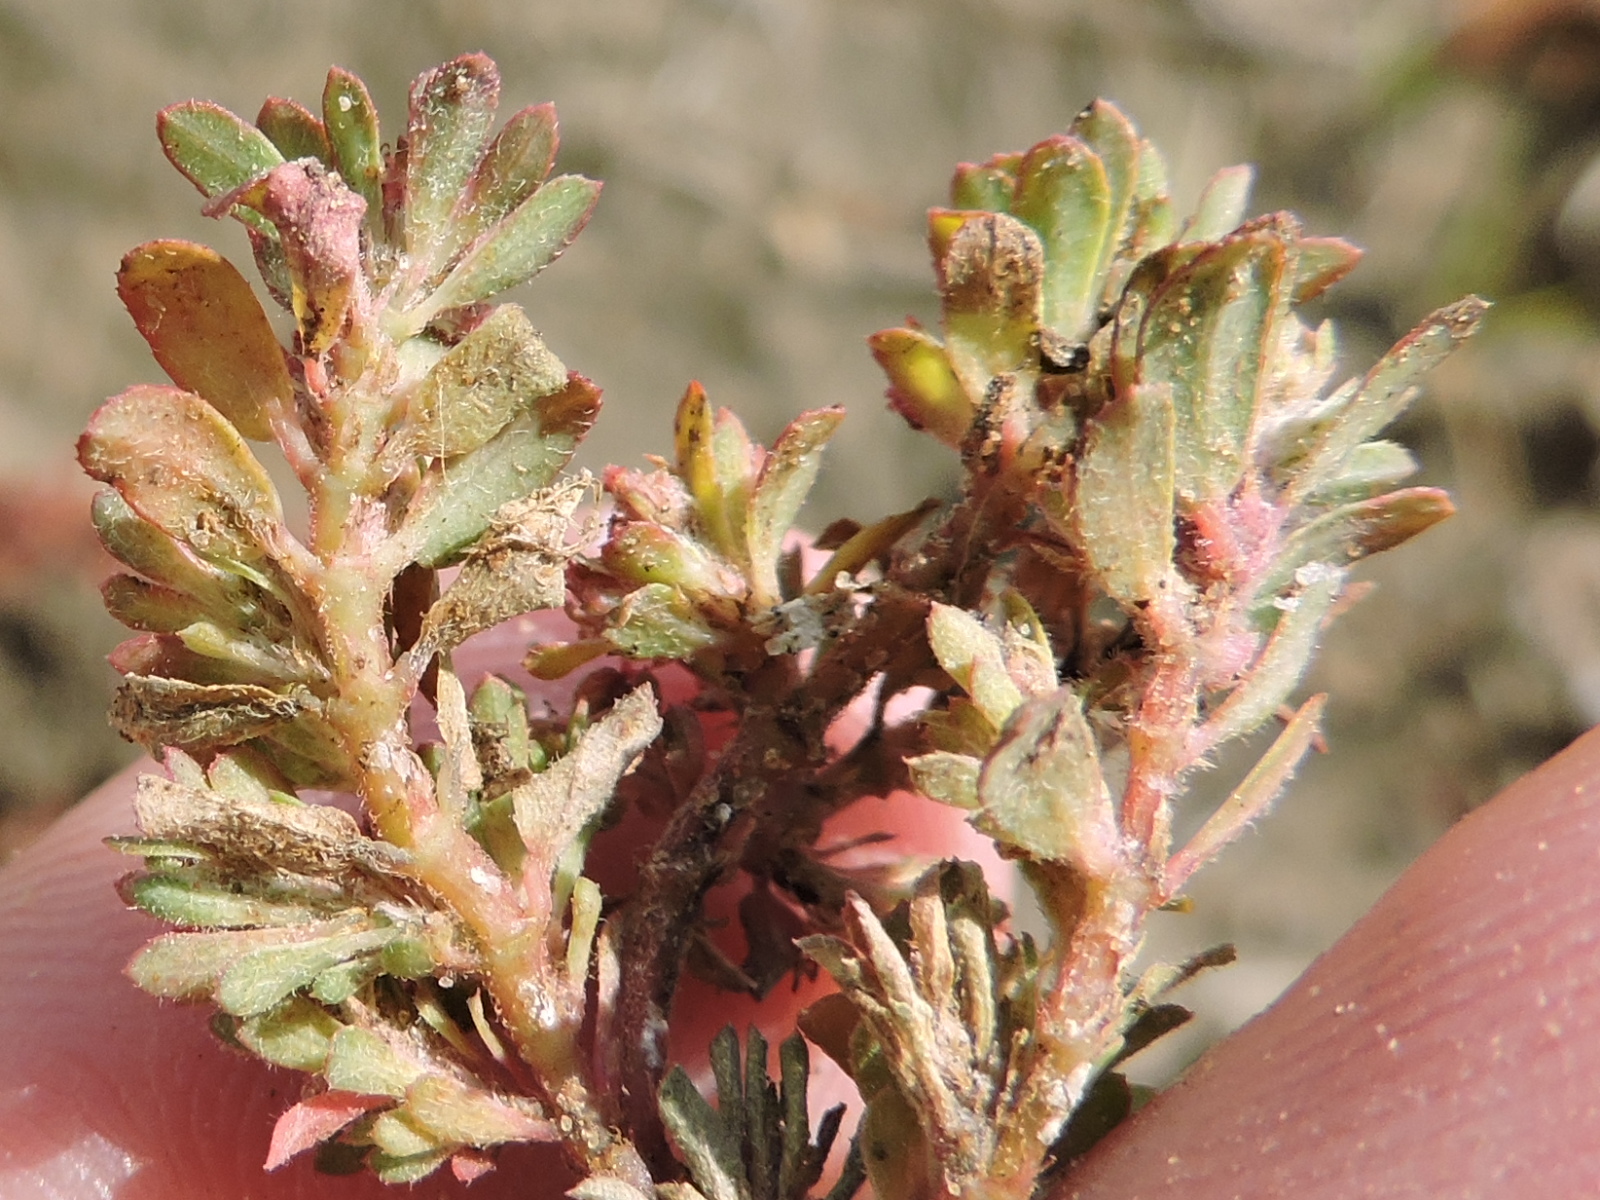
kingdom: Plantae
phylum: Tracheophyta
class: Magnoliopsida
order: Malpighiales
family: Euphorbiaceae
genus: Euphorbia
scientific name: Euphorbia maculata
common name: Spotted spurge
